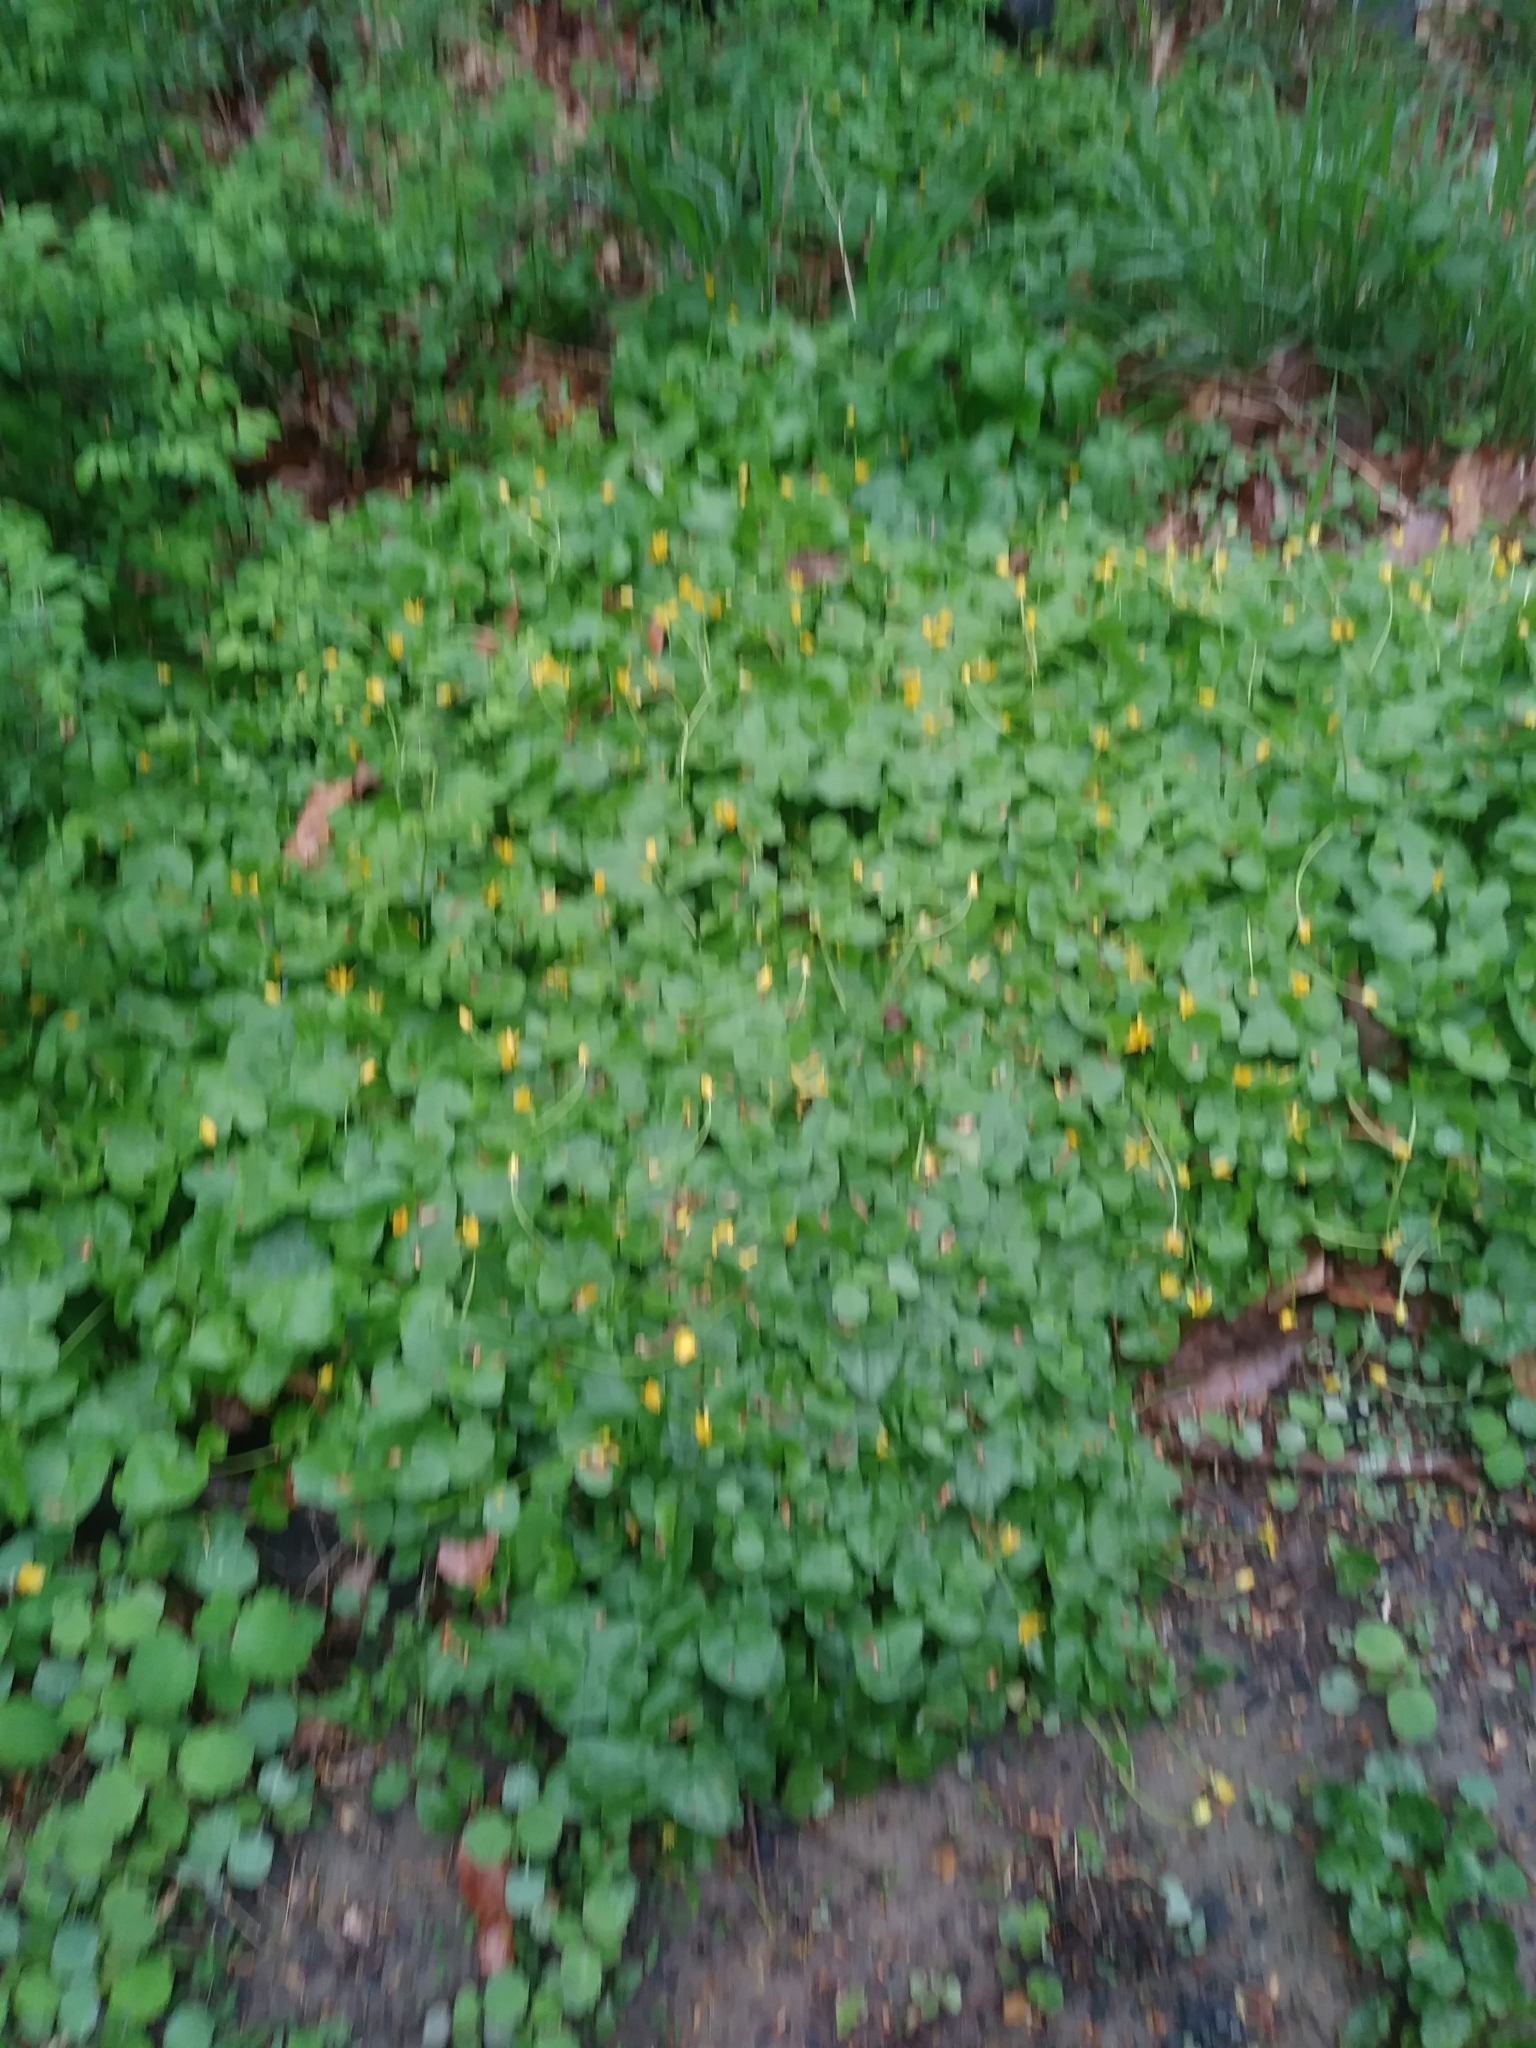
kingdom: Plantae
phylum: Tracheophyta
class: Magnoliopsida
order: Ranunculales
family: Ranunculaceae
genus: Ficaria
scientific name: Ficaria verna
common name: Lesser celandine
